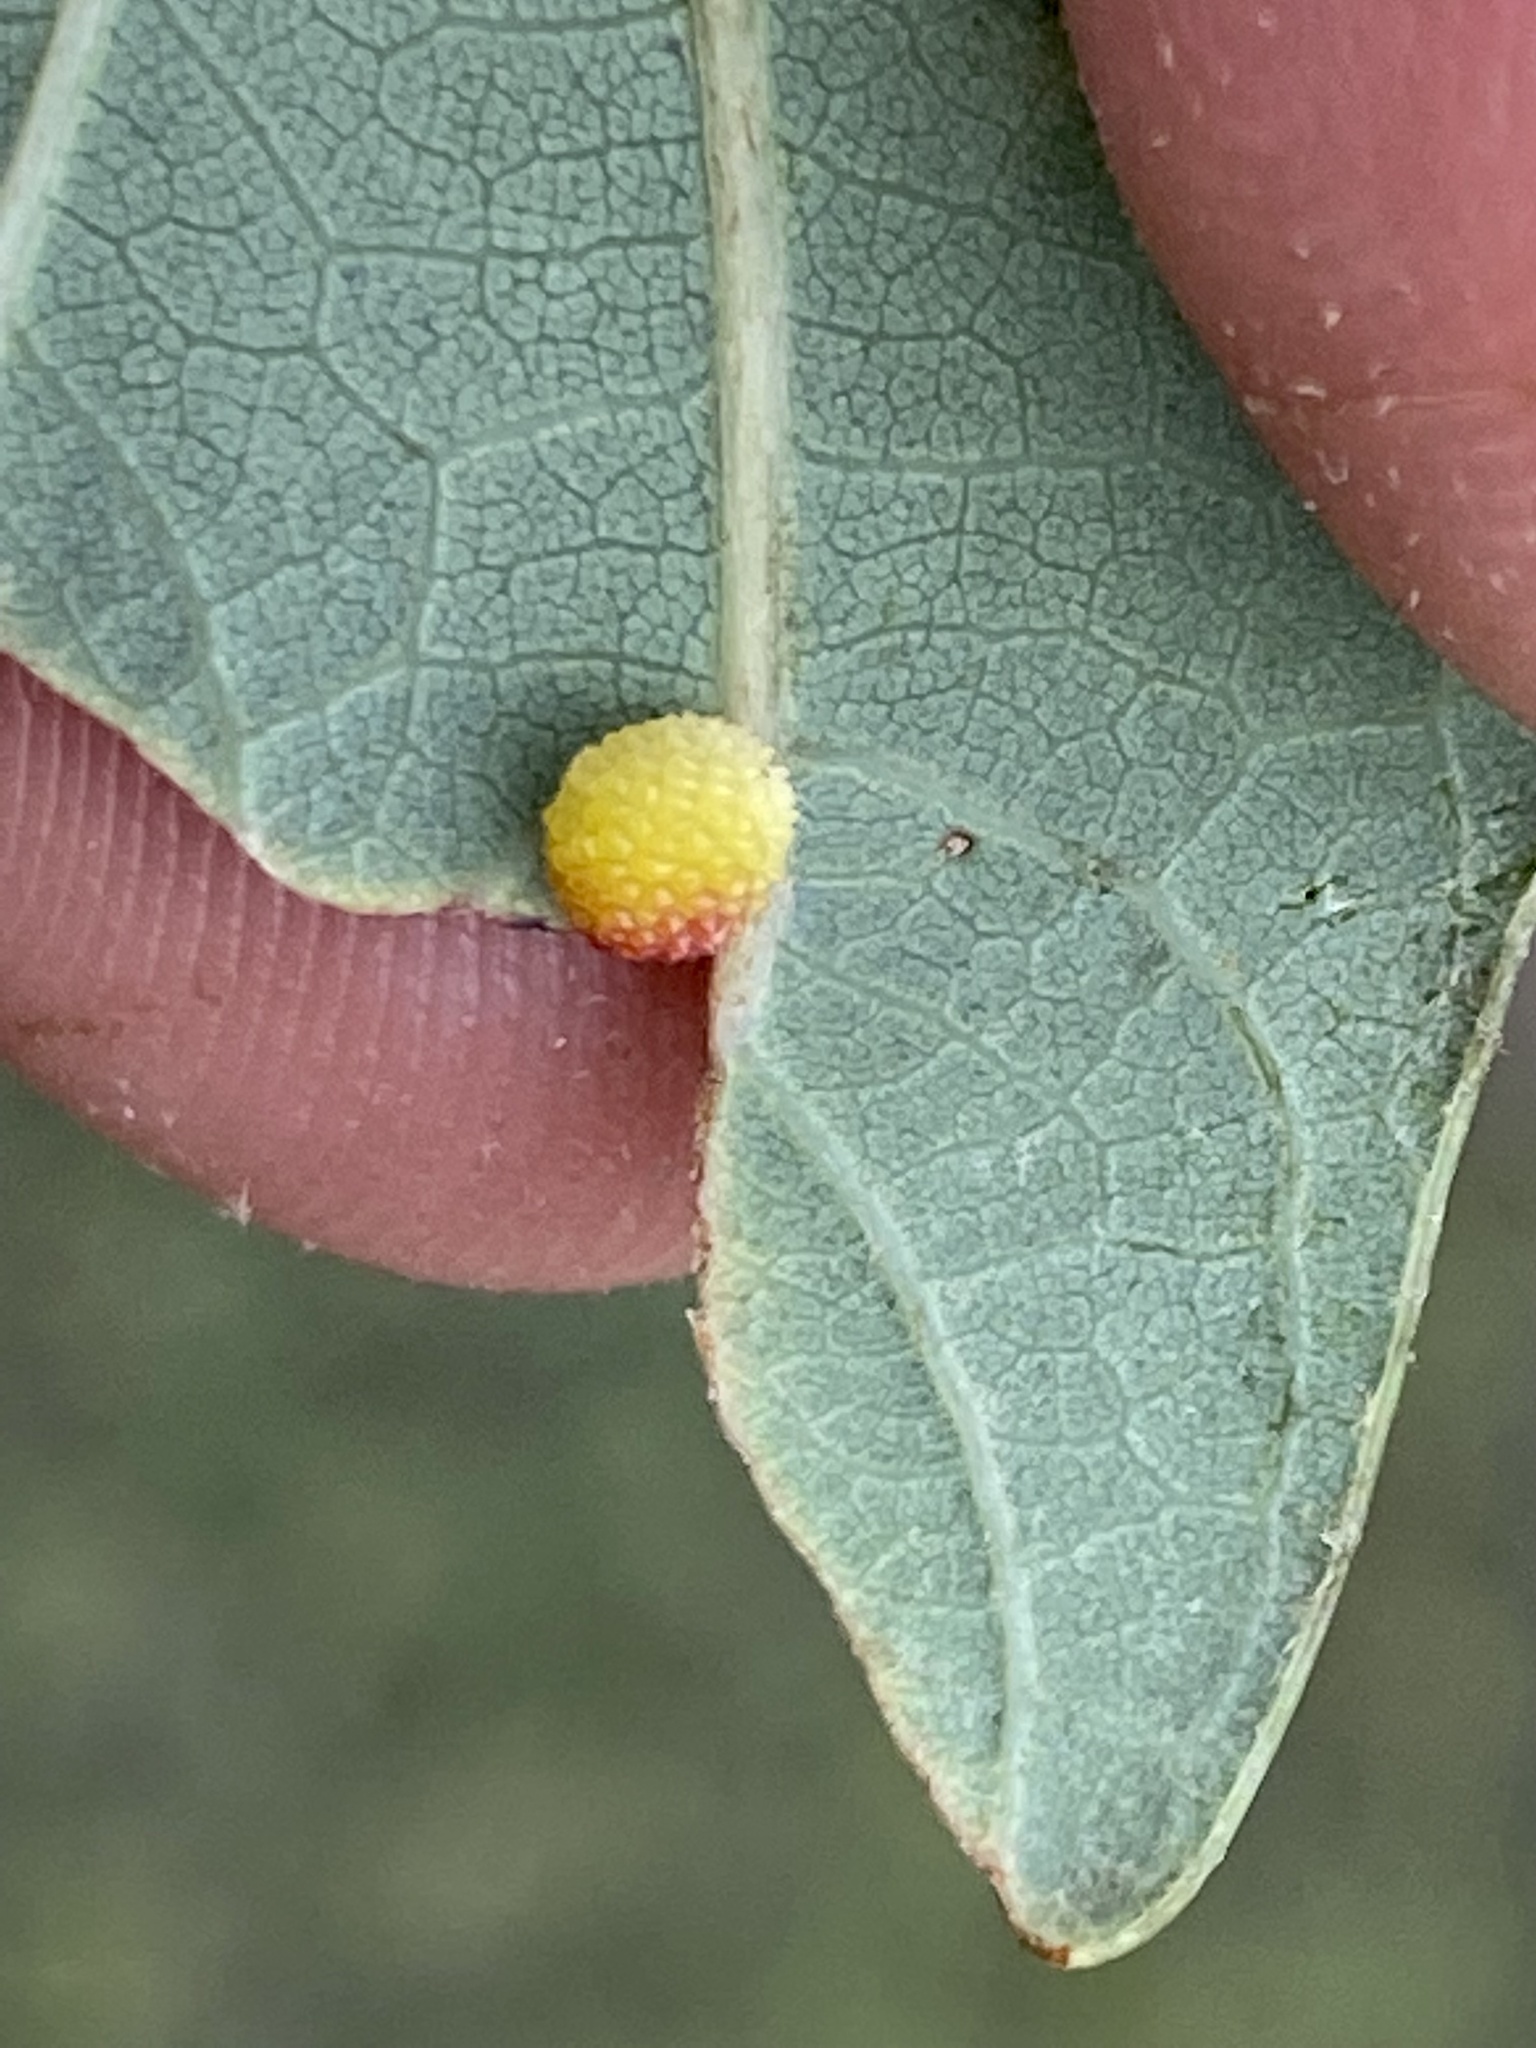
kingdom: Animalia
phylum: Arthropoda
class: Insecta
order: Hymenoptera
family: Cynipidae
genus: Acraspis
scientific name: Acraspis
